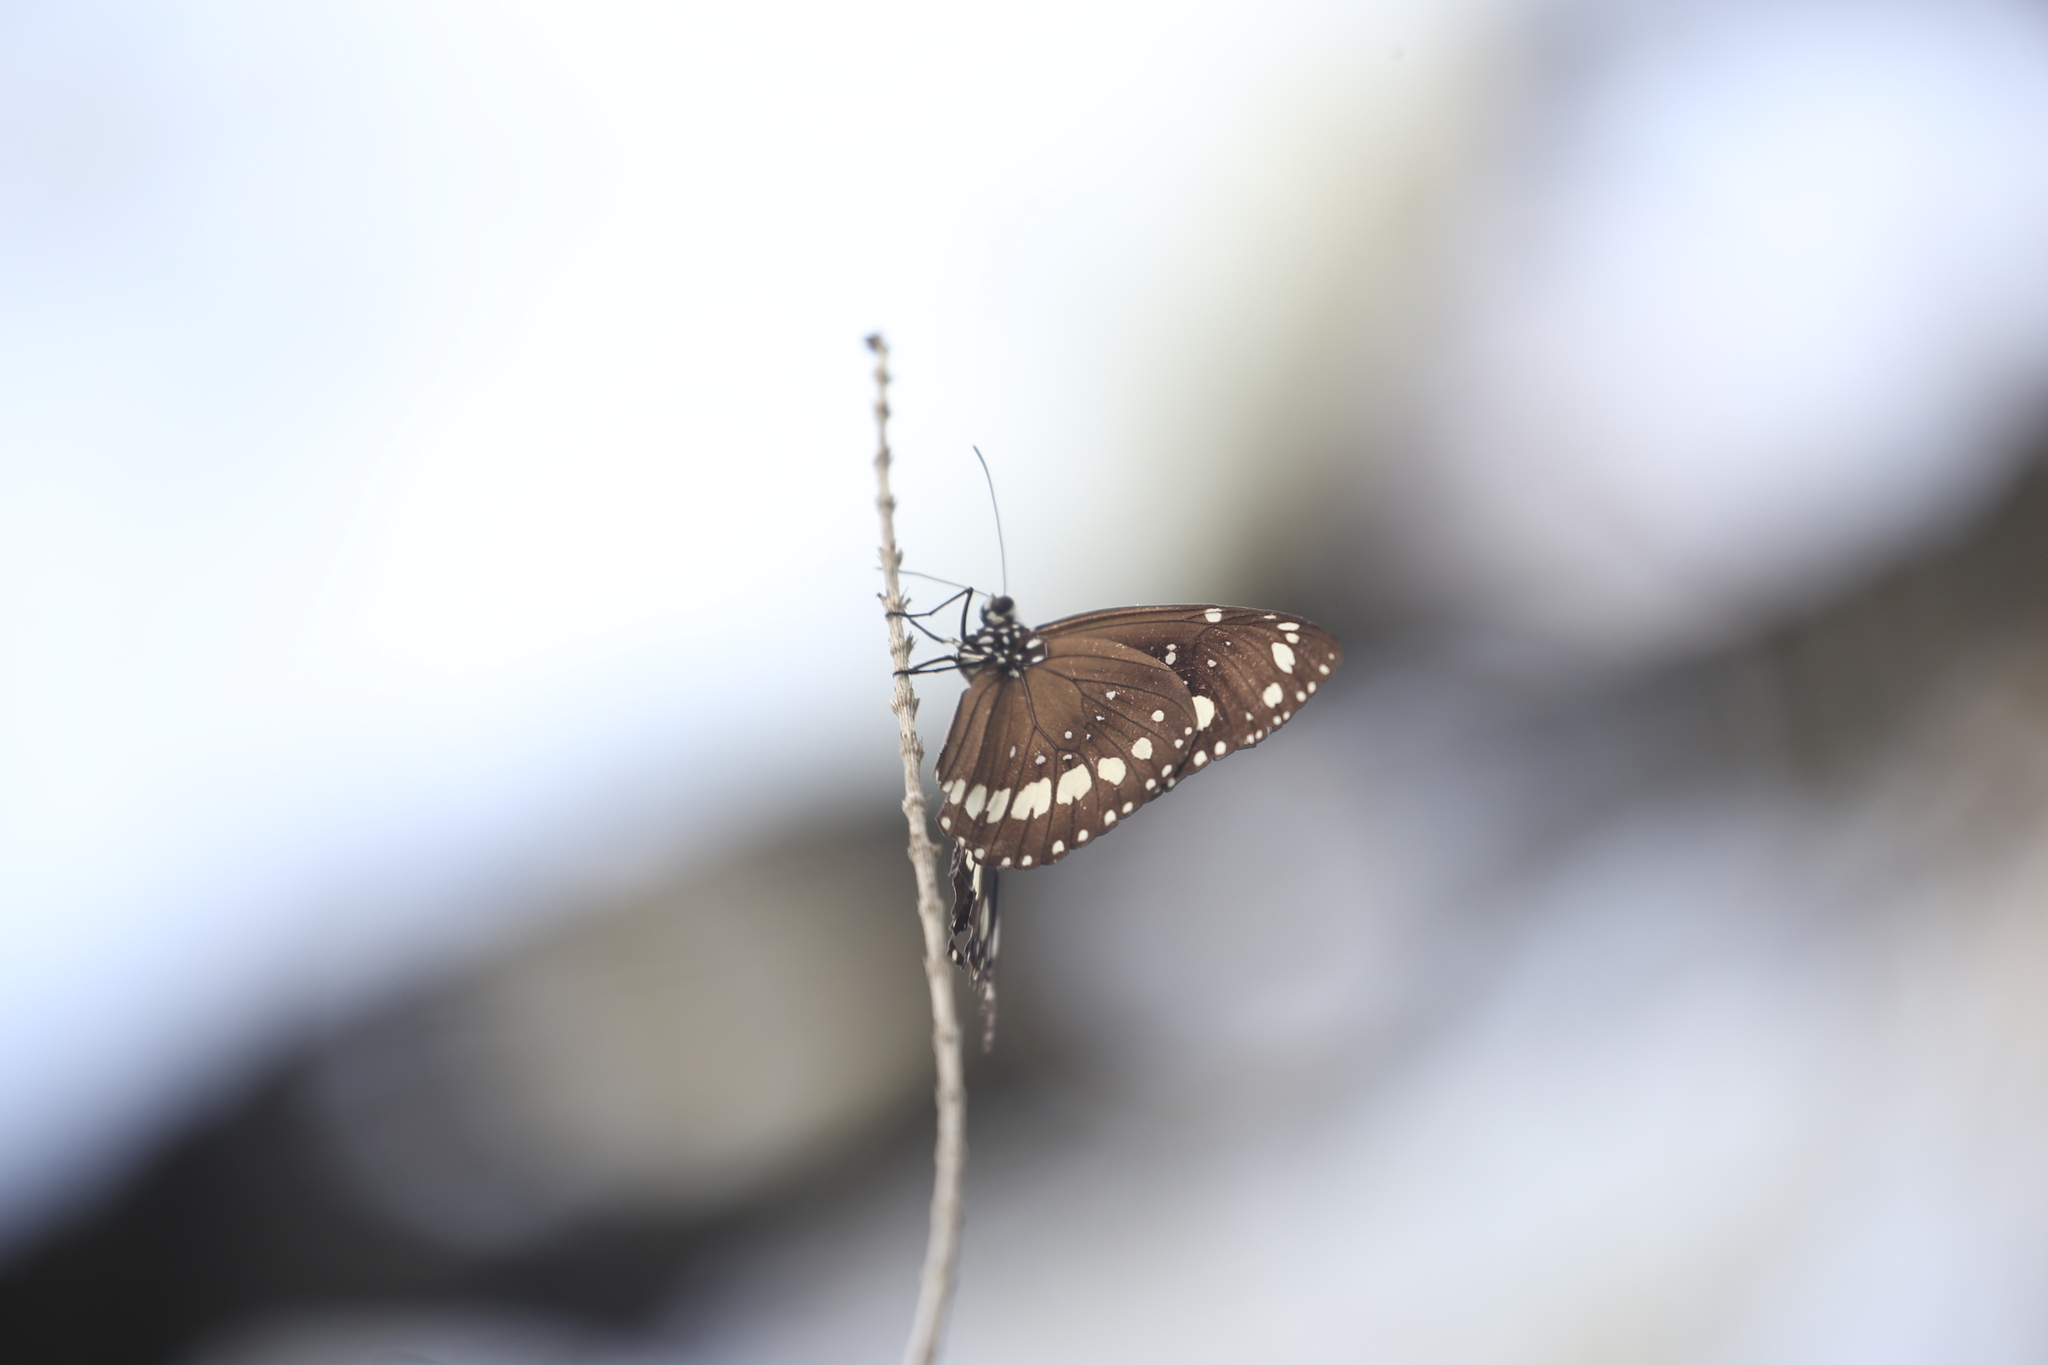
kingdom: Animalia
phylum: Arthropoda
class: Insecta
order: Lepidoptera
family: Nymphalidae
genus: Euploea
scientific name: Euploea core
